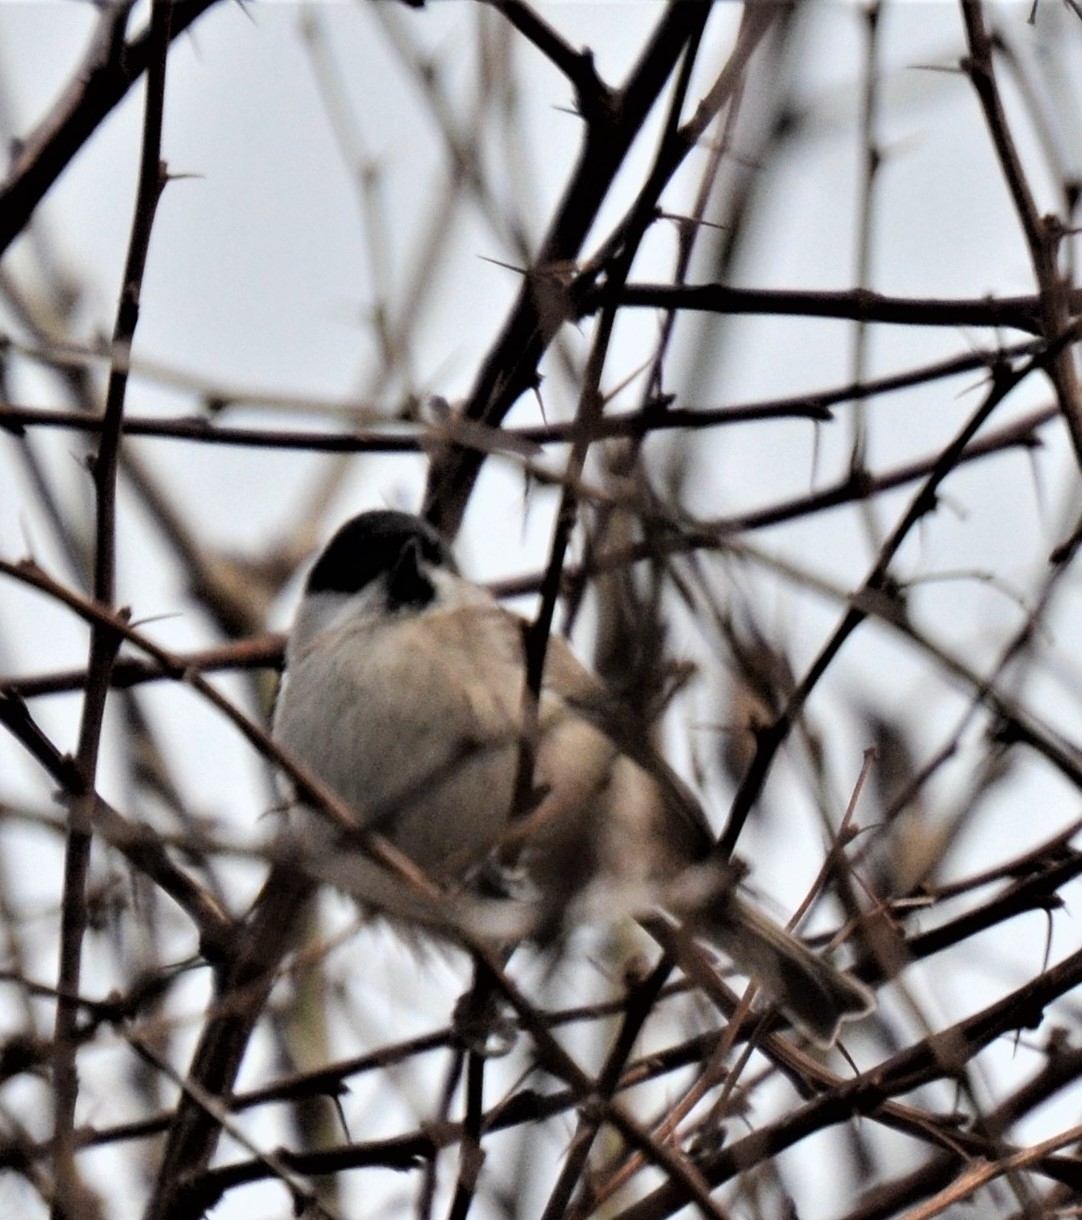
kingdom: Animalia
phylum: Chordata
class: Aves
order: Passeriformes
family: Paridae
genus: Poecile
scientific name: Poecile palustris
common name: Marsh tit
